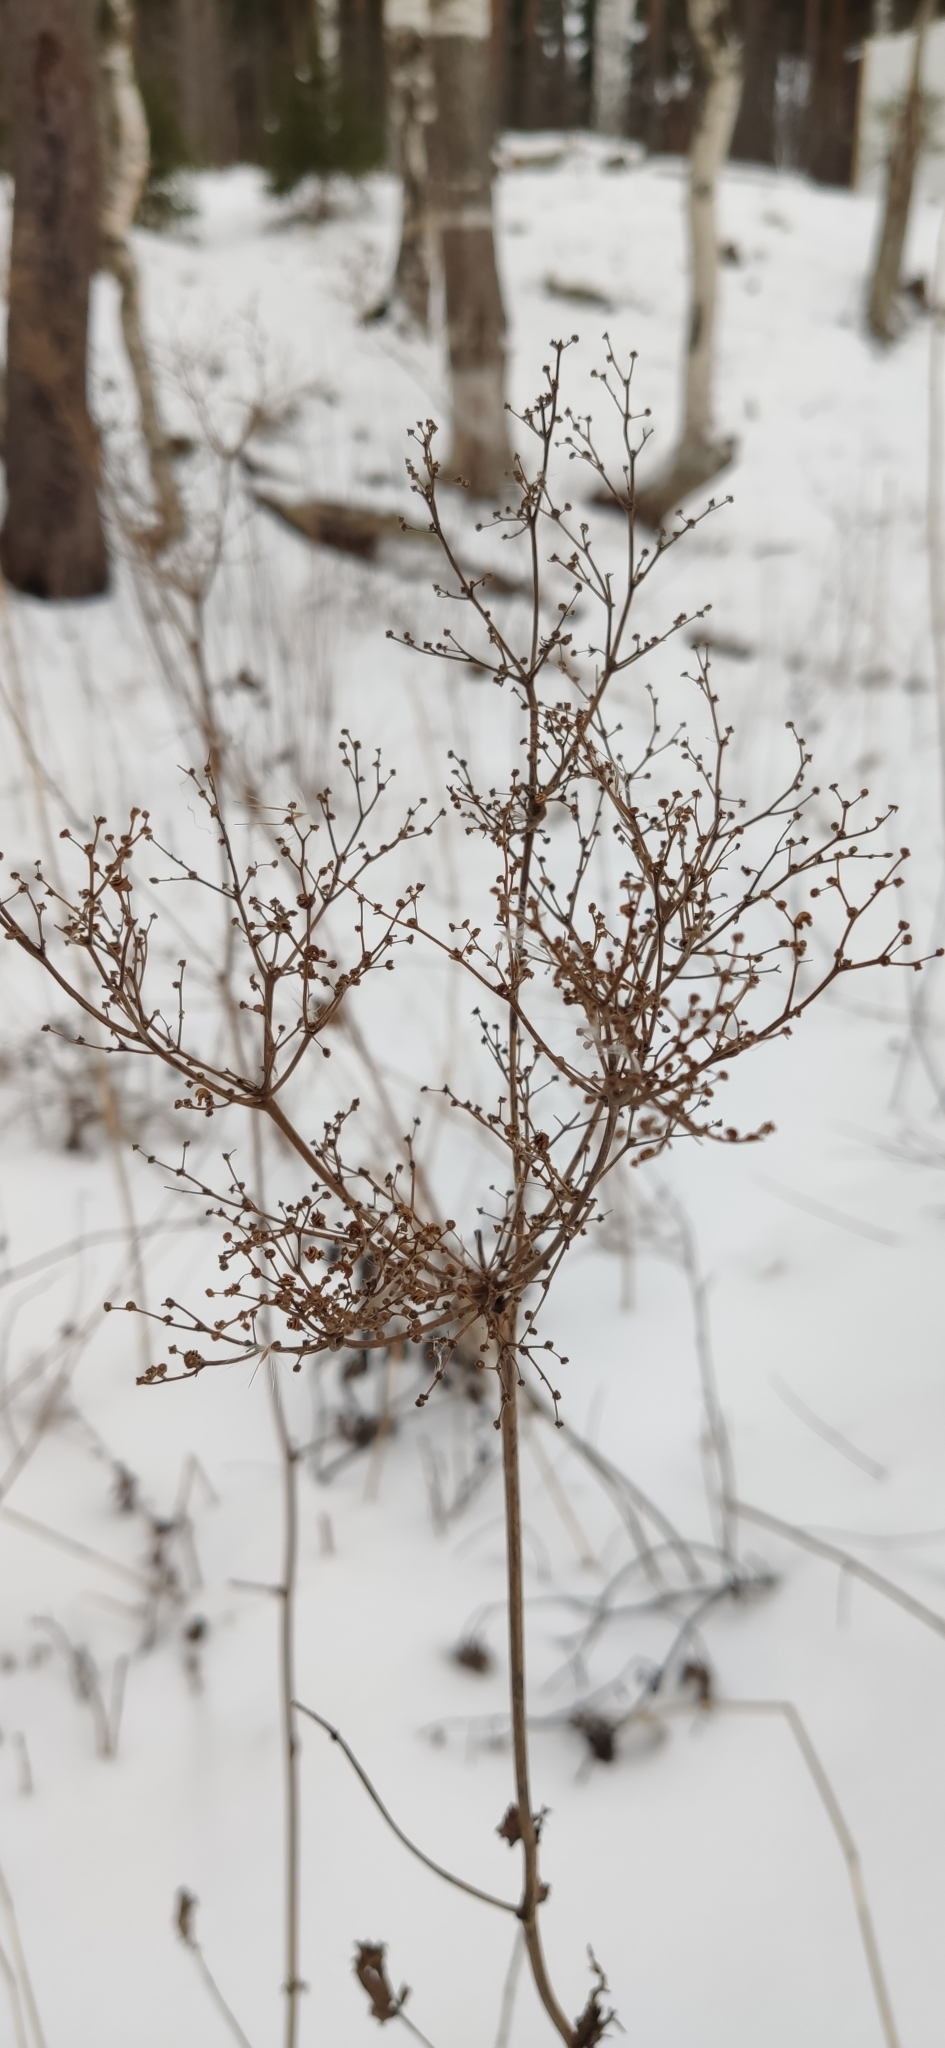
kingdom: Plantae
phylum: Tracheophyta
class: Magnoliopsida
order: Rosales
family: Rosaceae
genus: Filipendula
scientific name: Filipendula ulmaria
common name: Meadowsweet
